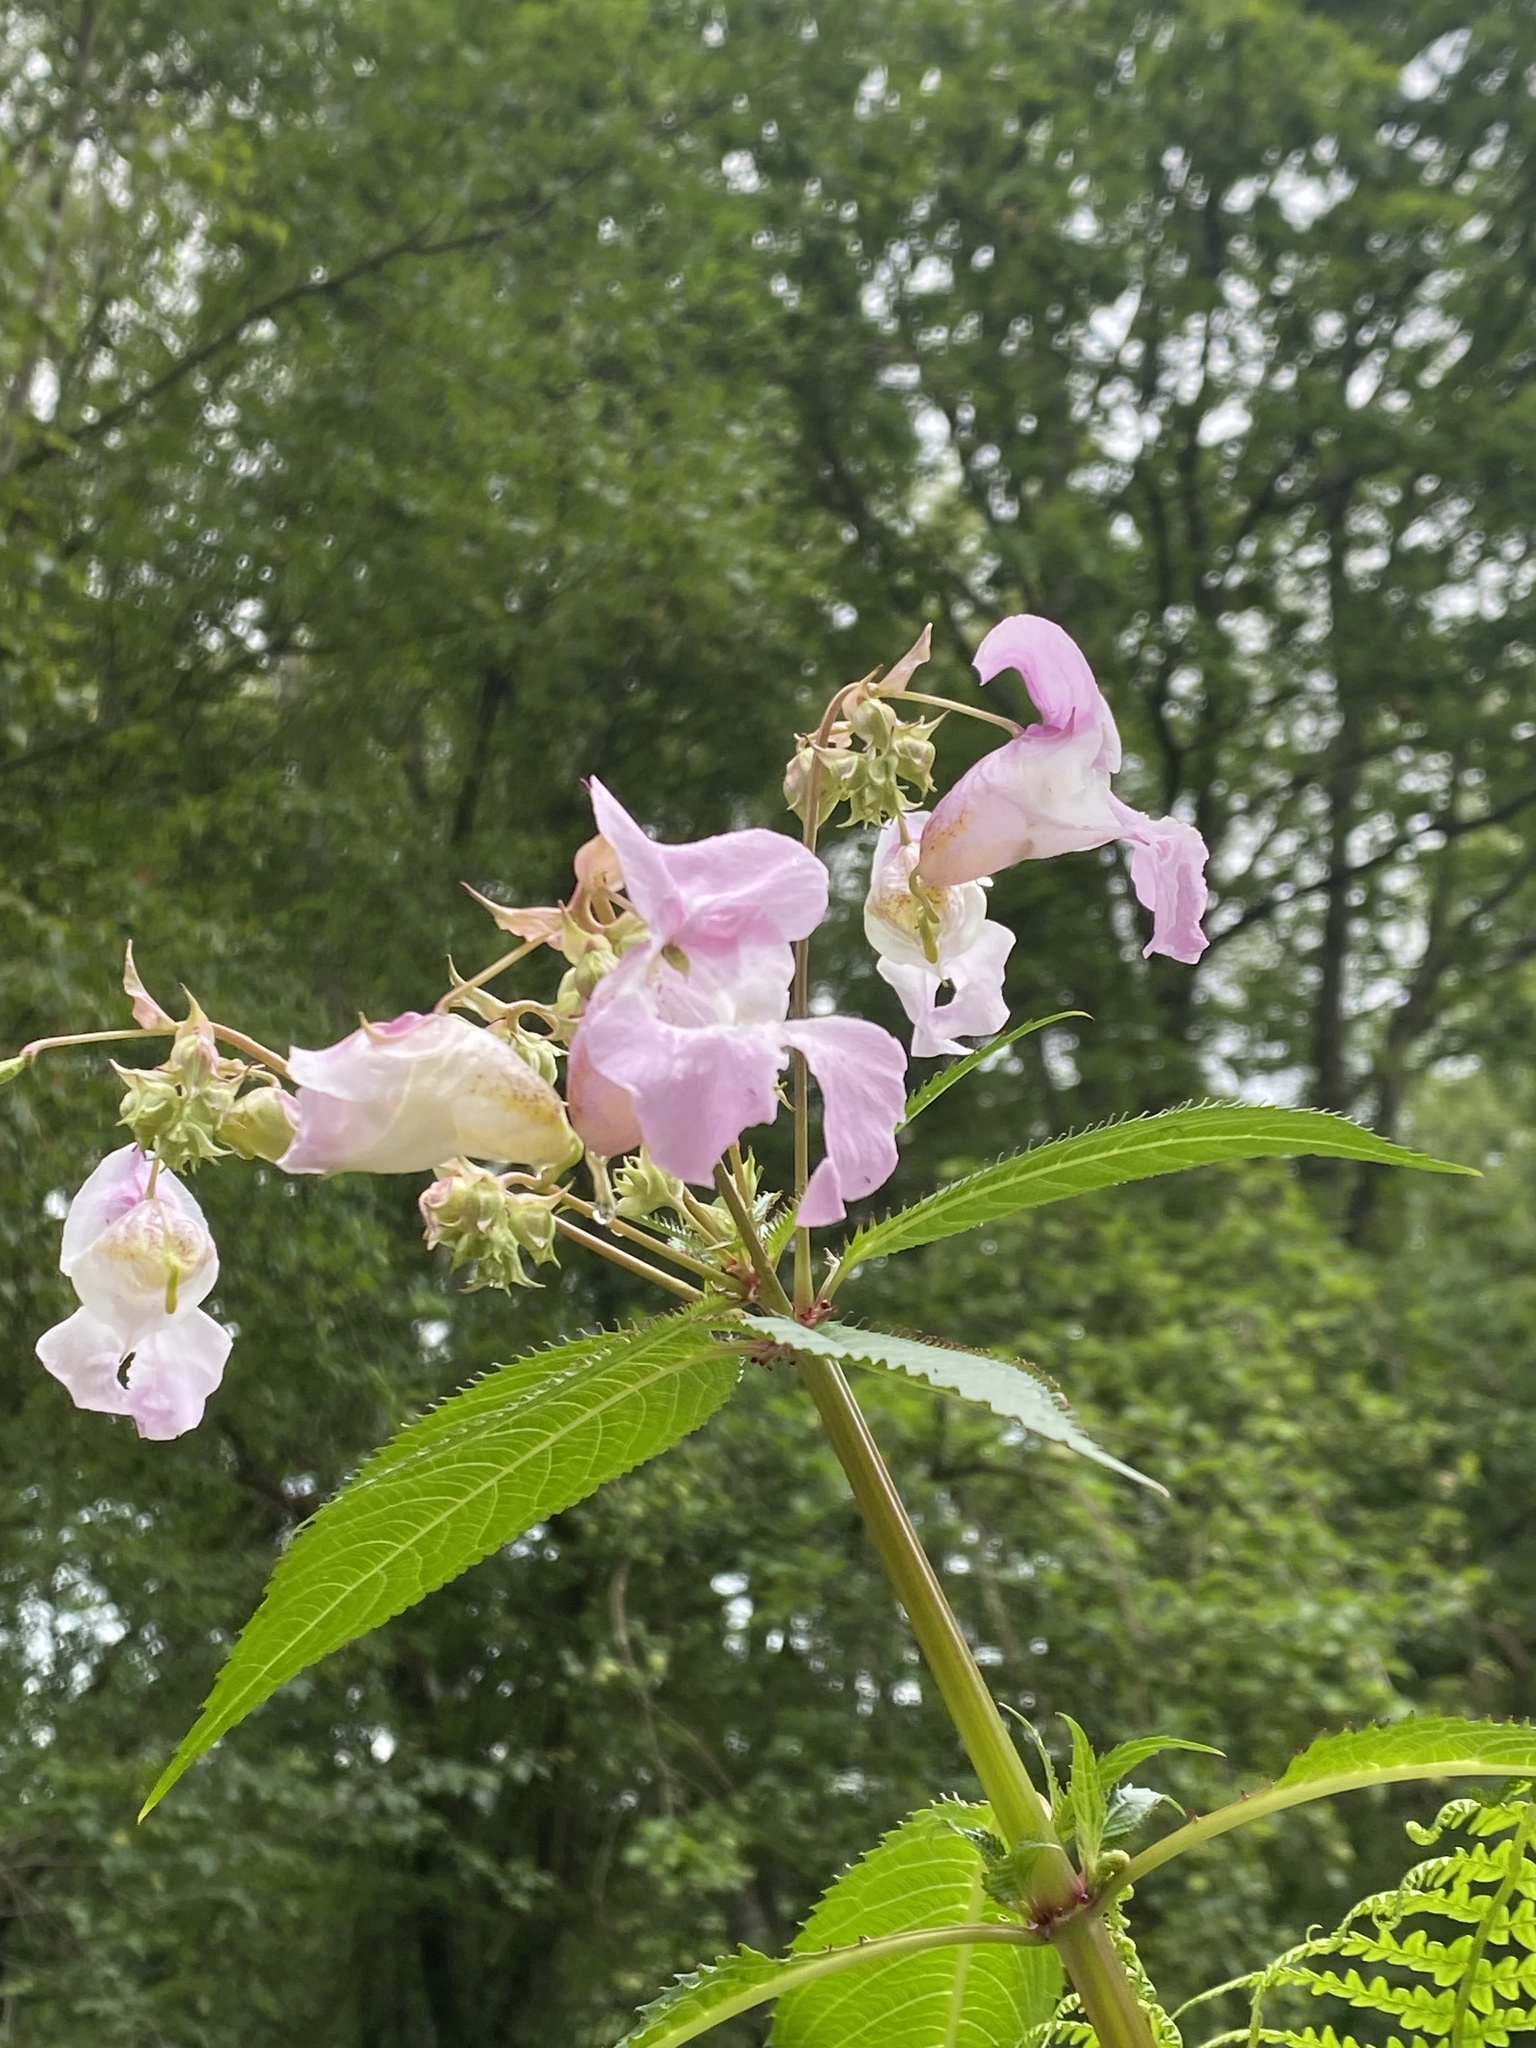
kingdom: Plantae
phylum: Tracheophyta
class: Magnoliopsida
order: Ericales
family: Balsaminaceae
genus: Impatiens
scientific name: Impatiens glandulifera
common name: Himalayan balsam
